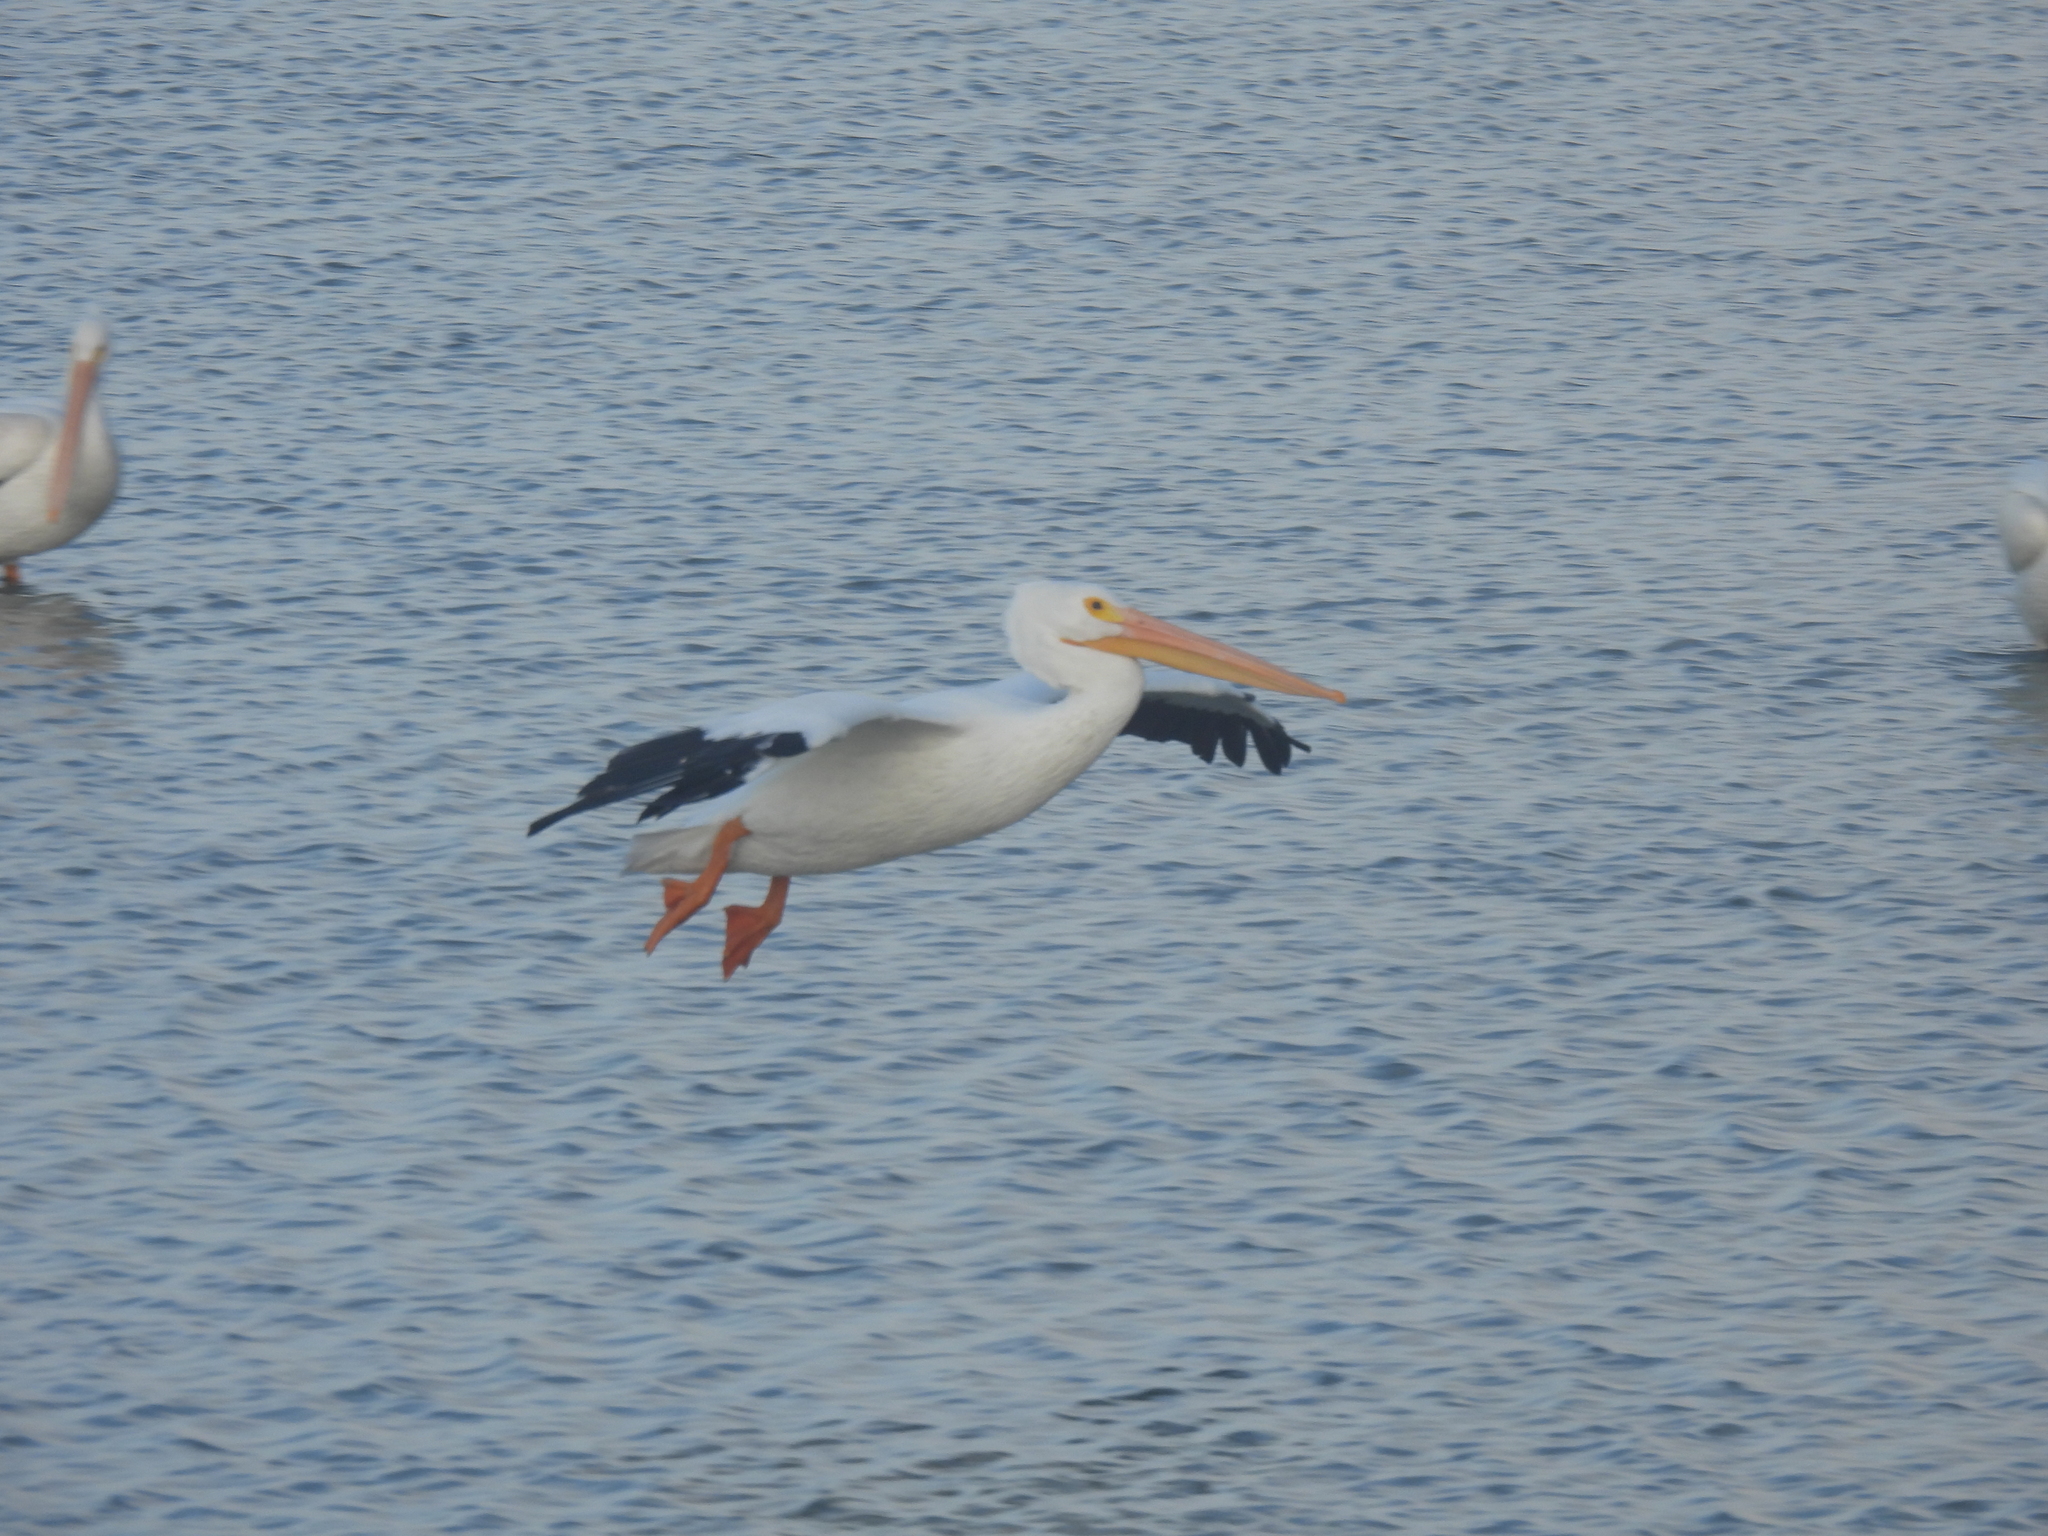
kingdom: Animalia
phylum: Chordata
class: Aves
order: Pelecaniformes
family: Pelecanidae
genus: Pelecanus
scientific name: Pelecanus erythrorhynchos
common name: American white pelican
